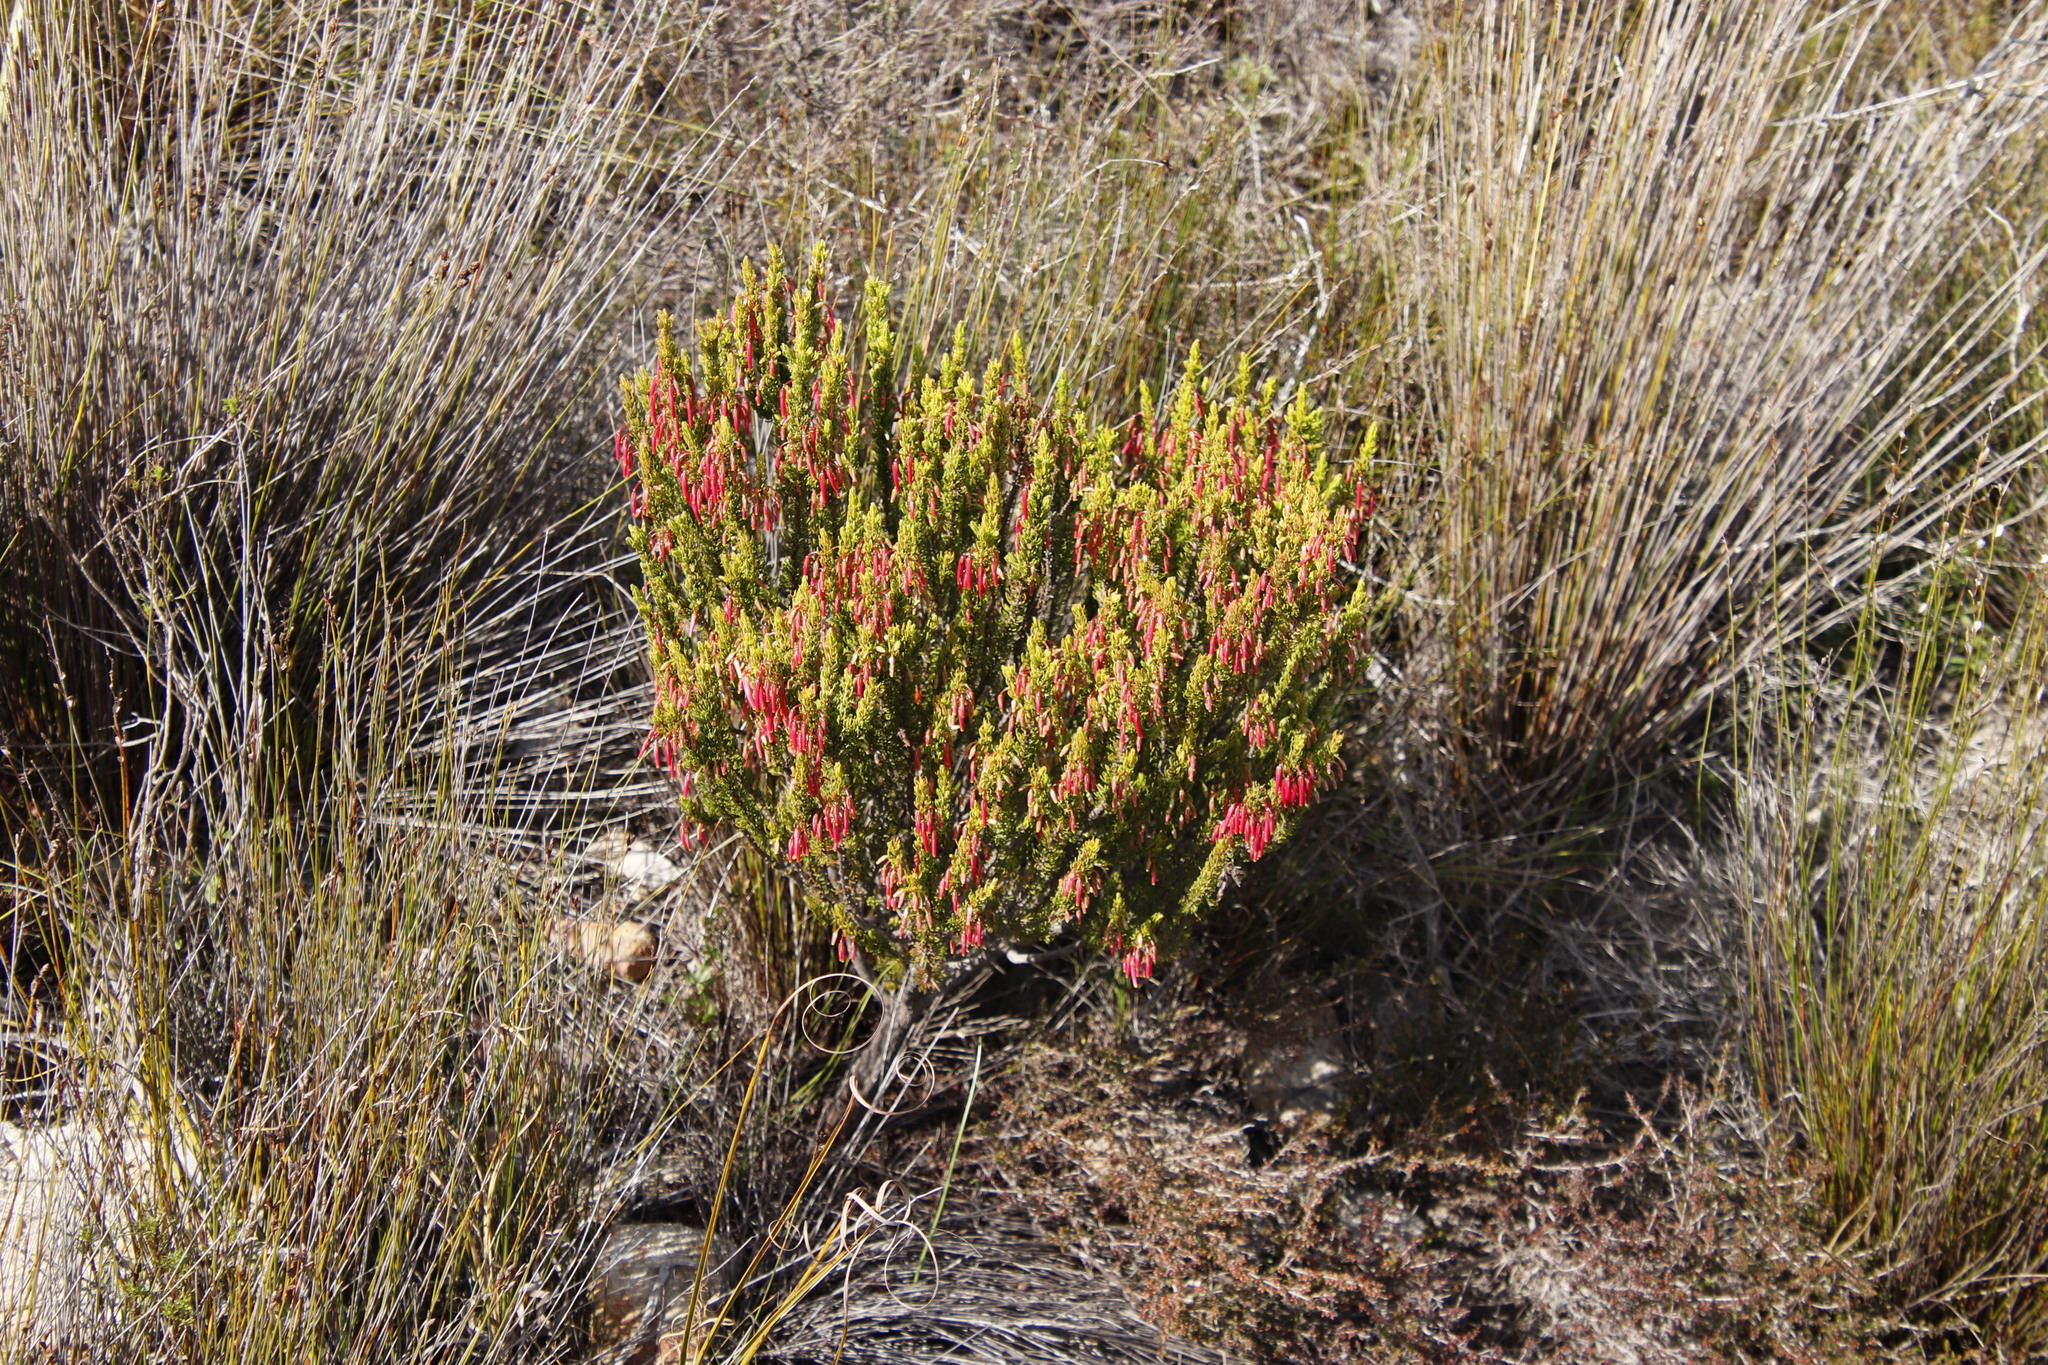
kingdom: Plantae
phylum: Tracheophyta
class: Magnoliopsida
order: Ericales
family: Ericaceae
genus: Erica
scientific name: Erica plukenetii
